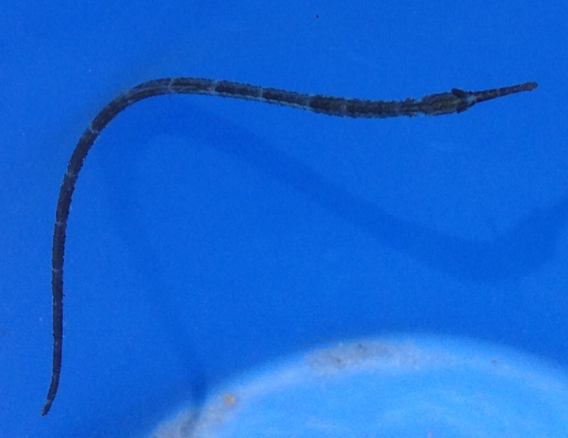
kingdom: Animalia
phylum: Chordata
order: Syngnathiformes
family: Syngnathidae
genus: Syngnathus
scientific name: Syngnathus
